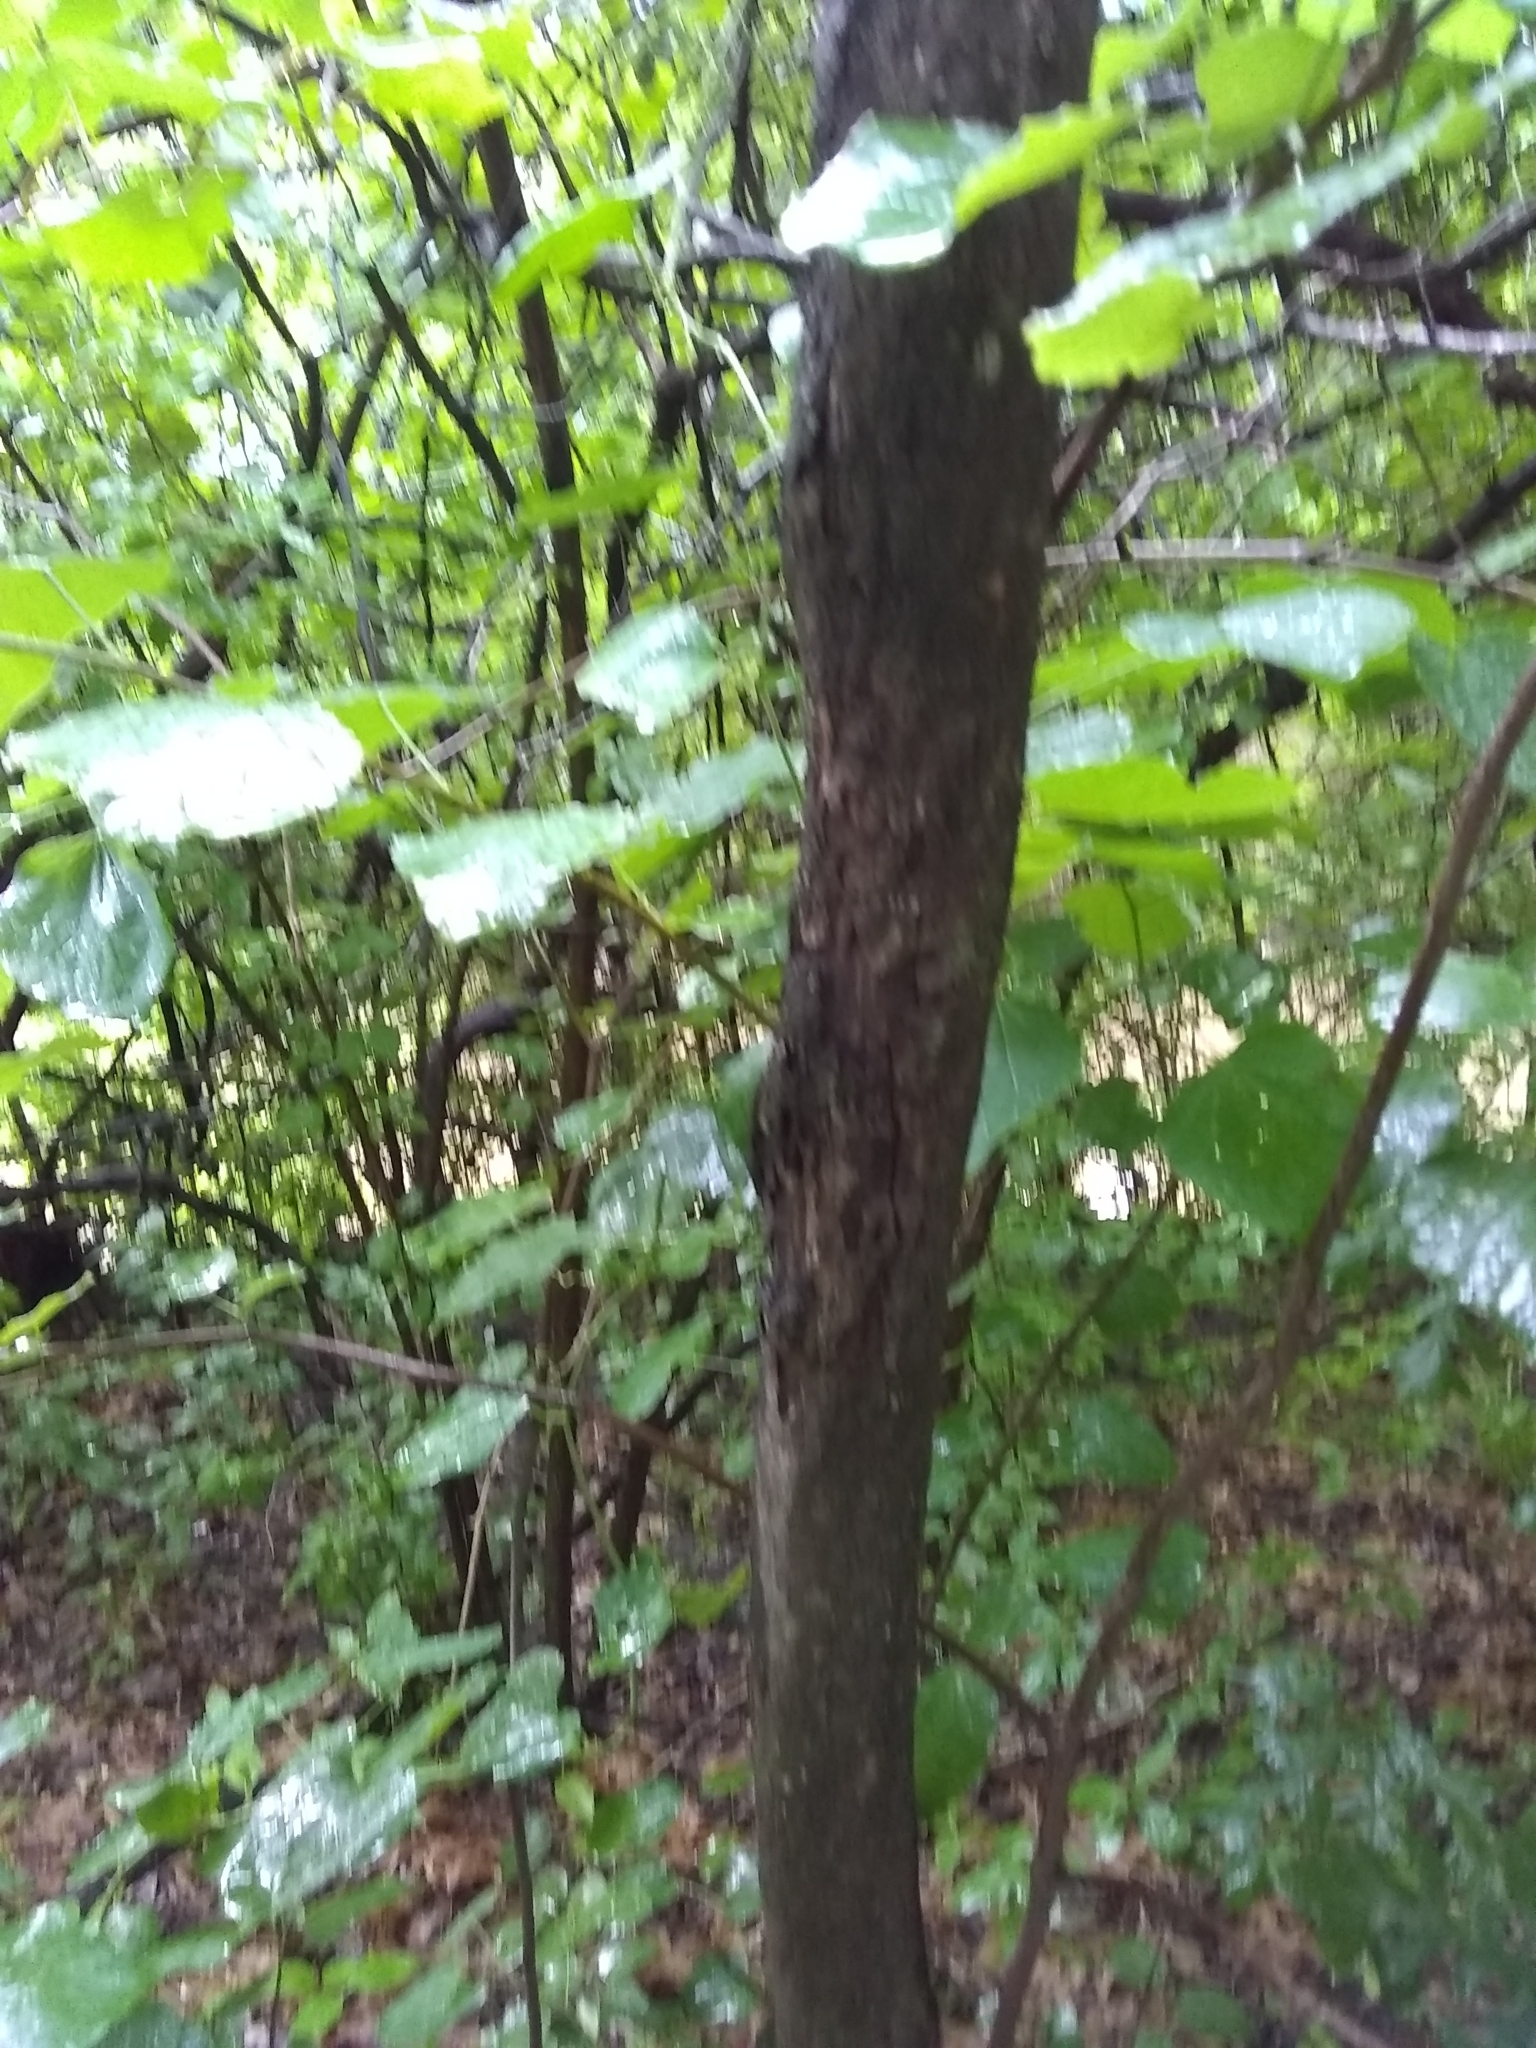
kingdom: Plantae
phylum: Tracheophyta
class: Magnoliopsida
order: Fabales
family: Fabaceae
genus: Cercis
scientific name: Cercis canadensis
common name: Eastern redbud
